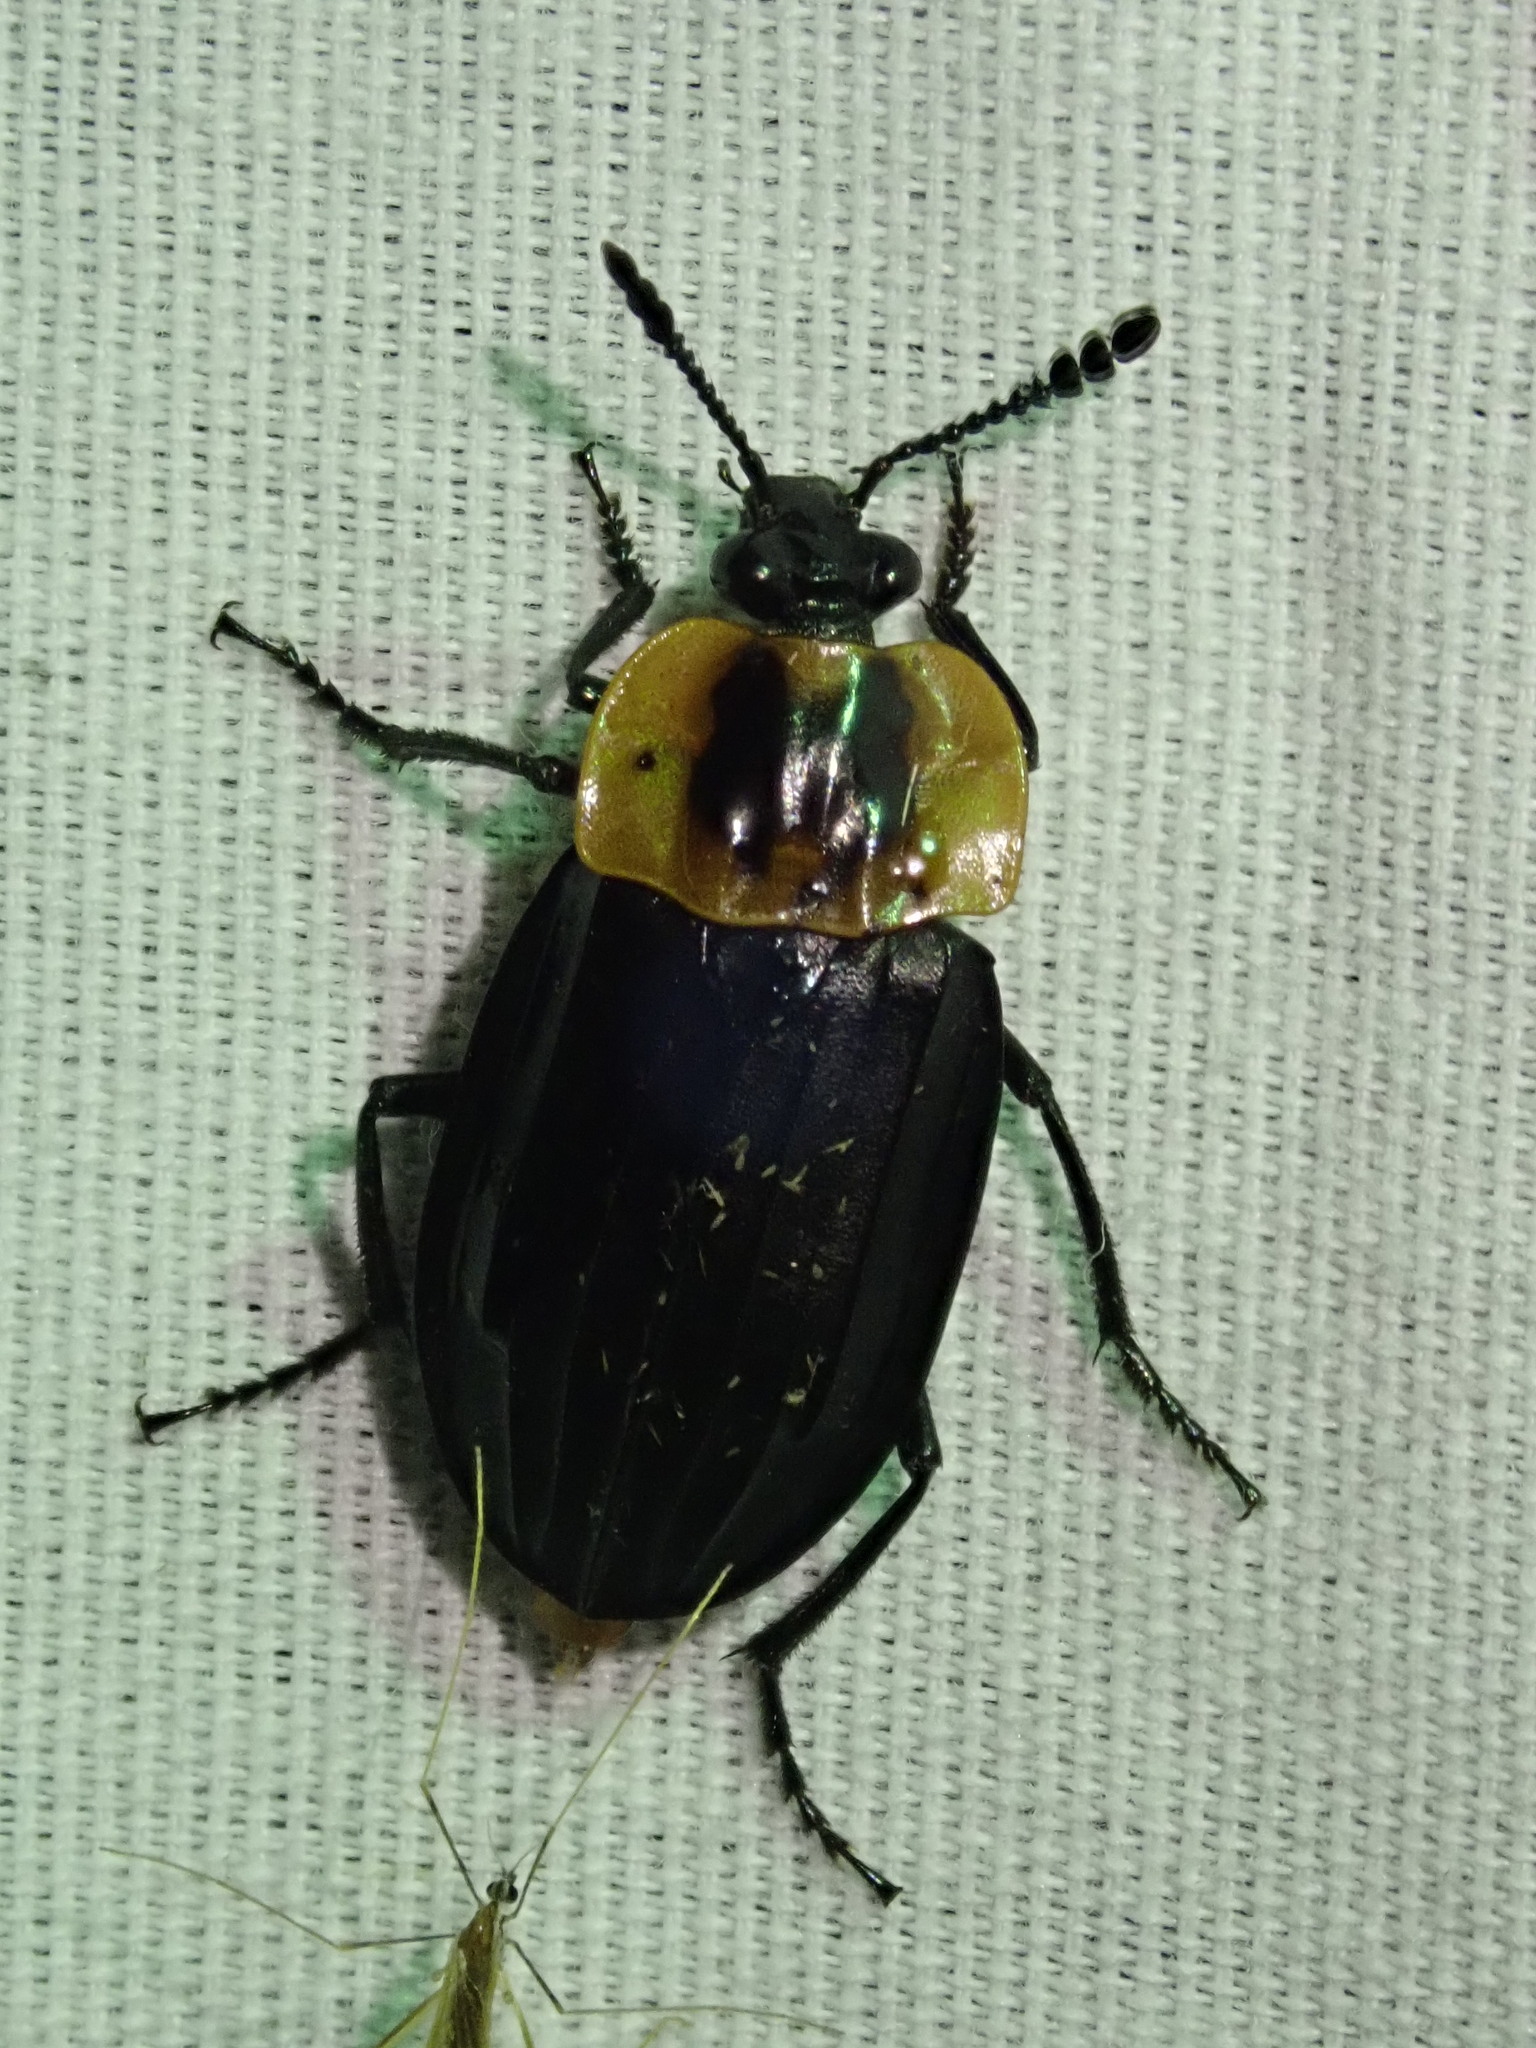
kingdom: Animalia
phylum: Arthropoda
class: Insecta
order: Coleoptera
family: Staphylinidae
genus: Oxelytrum
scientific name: Oxelytrum discicolle
